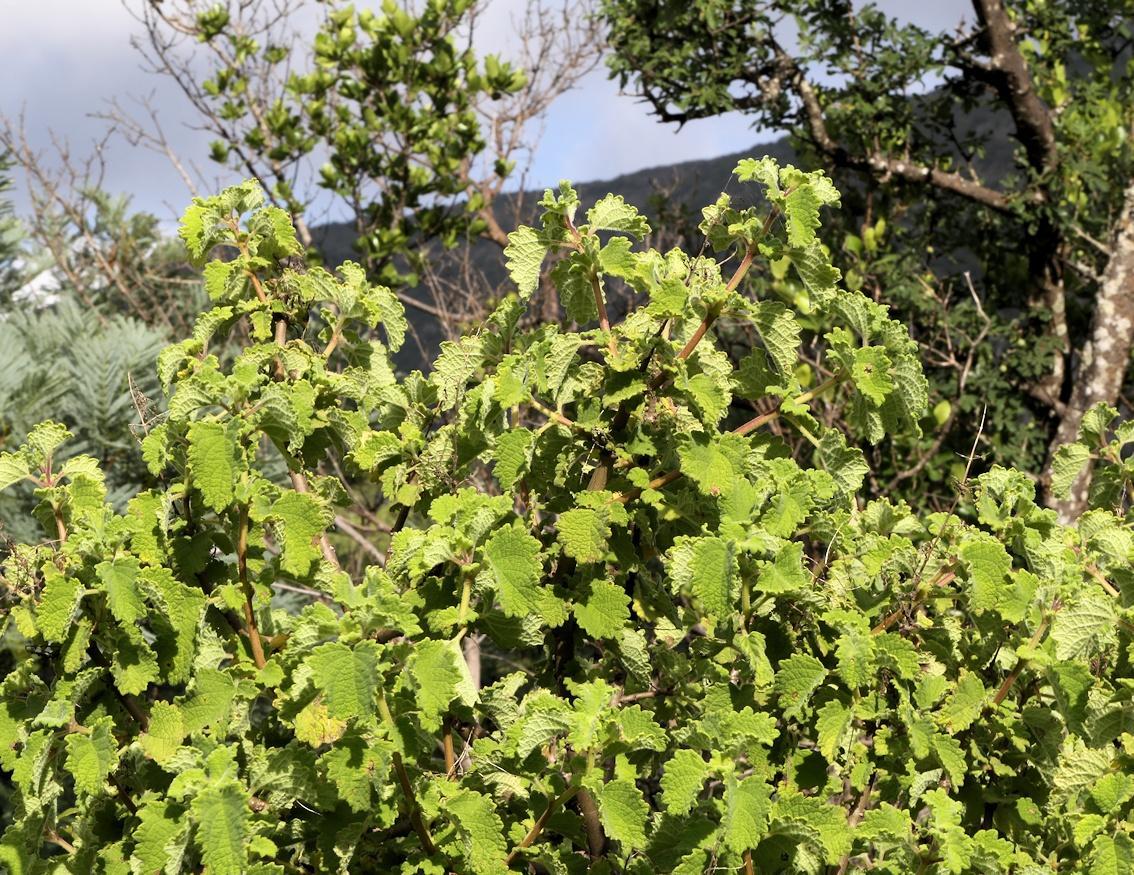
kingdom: Plantae
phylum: Tracheophyta
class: Magnoliopsida
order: Rosales
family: Urticaceae
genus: Obetia
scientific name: Obetia tenax
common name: Rock tree nettle
